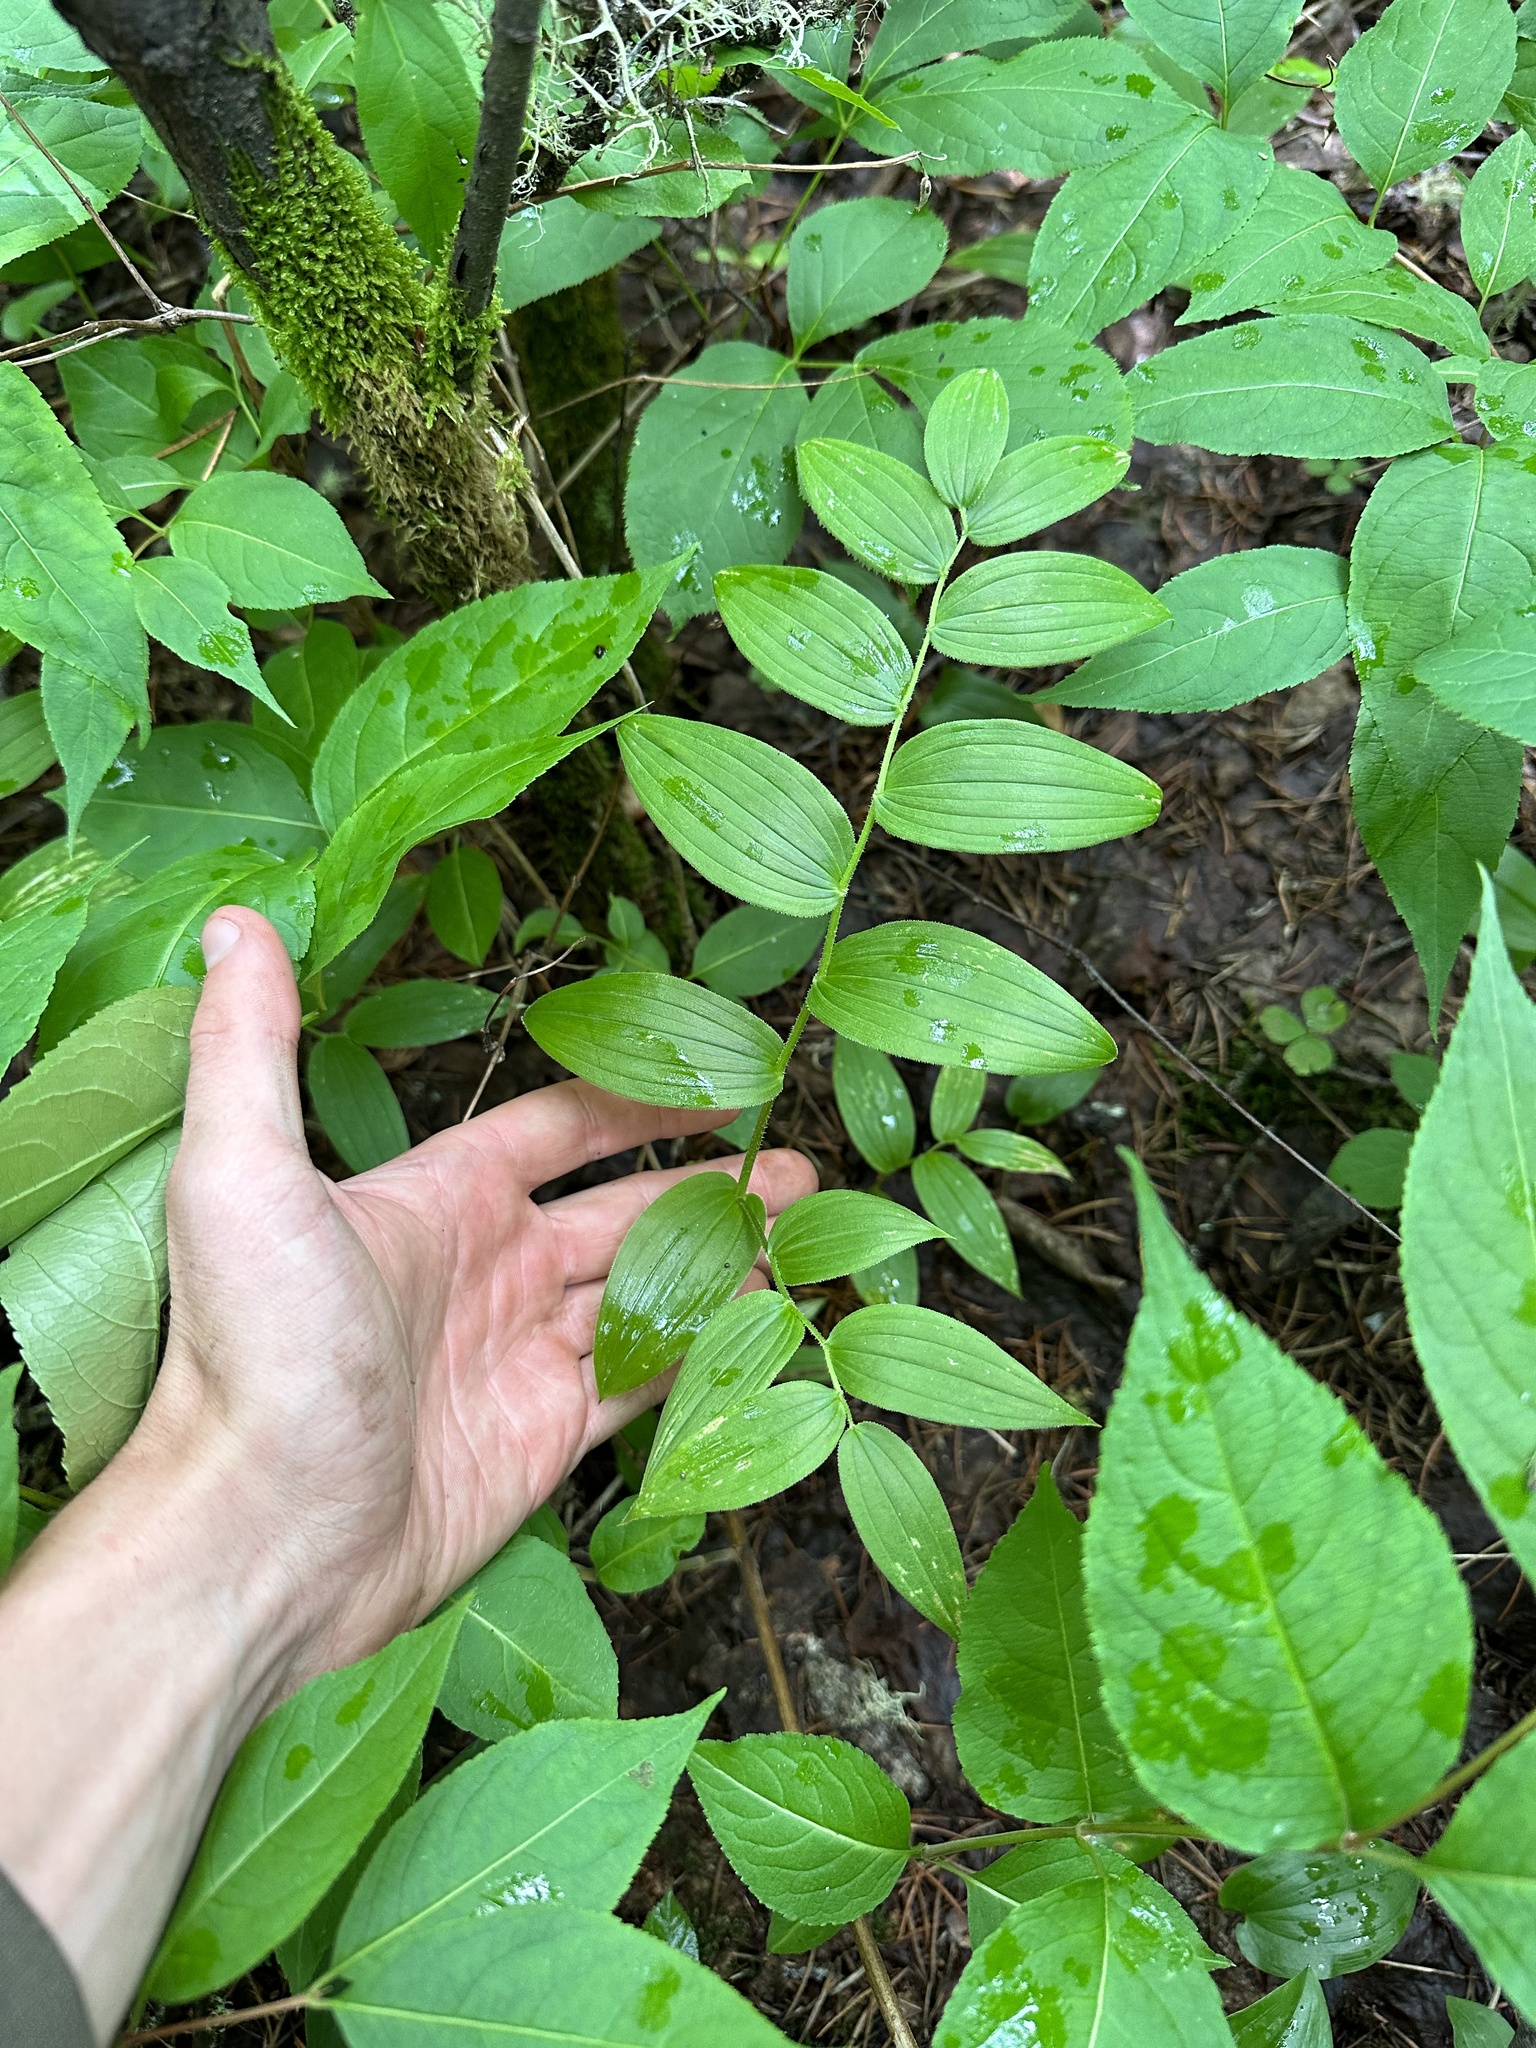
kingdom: Plantae
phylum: Tracheophyta
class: Liliopsida
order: Liliales
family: Liliaceae
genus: Streptopus
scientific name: Streptopus lanceolatus
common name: Rose mandarin
